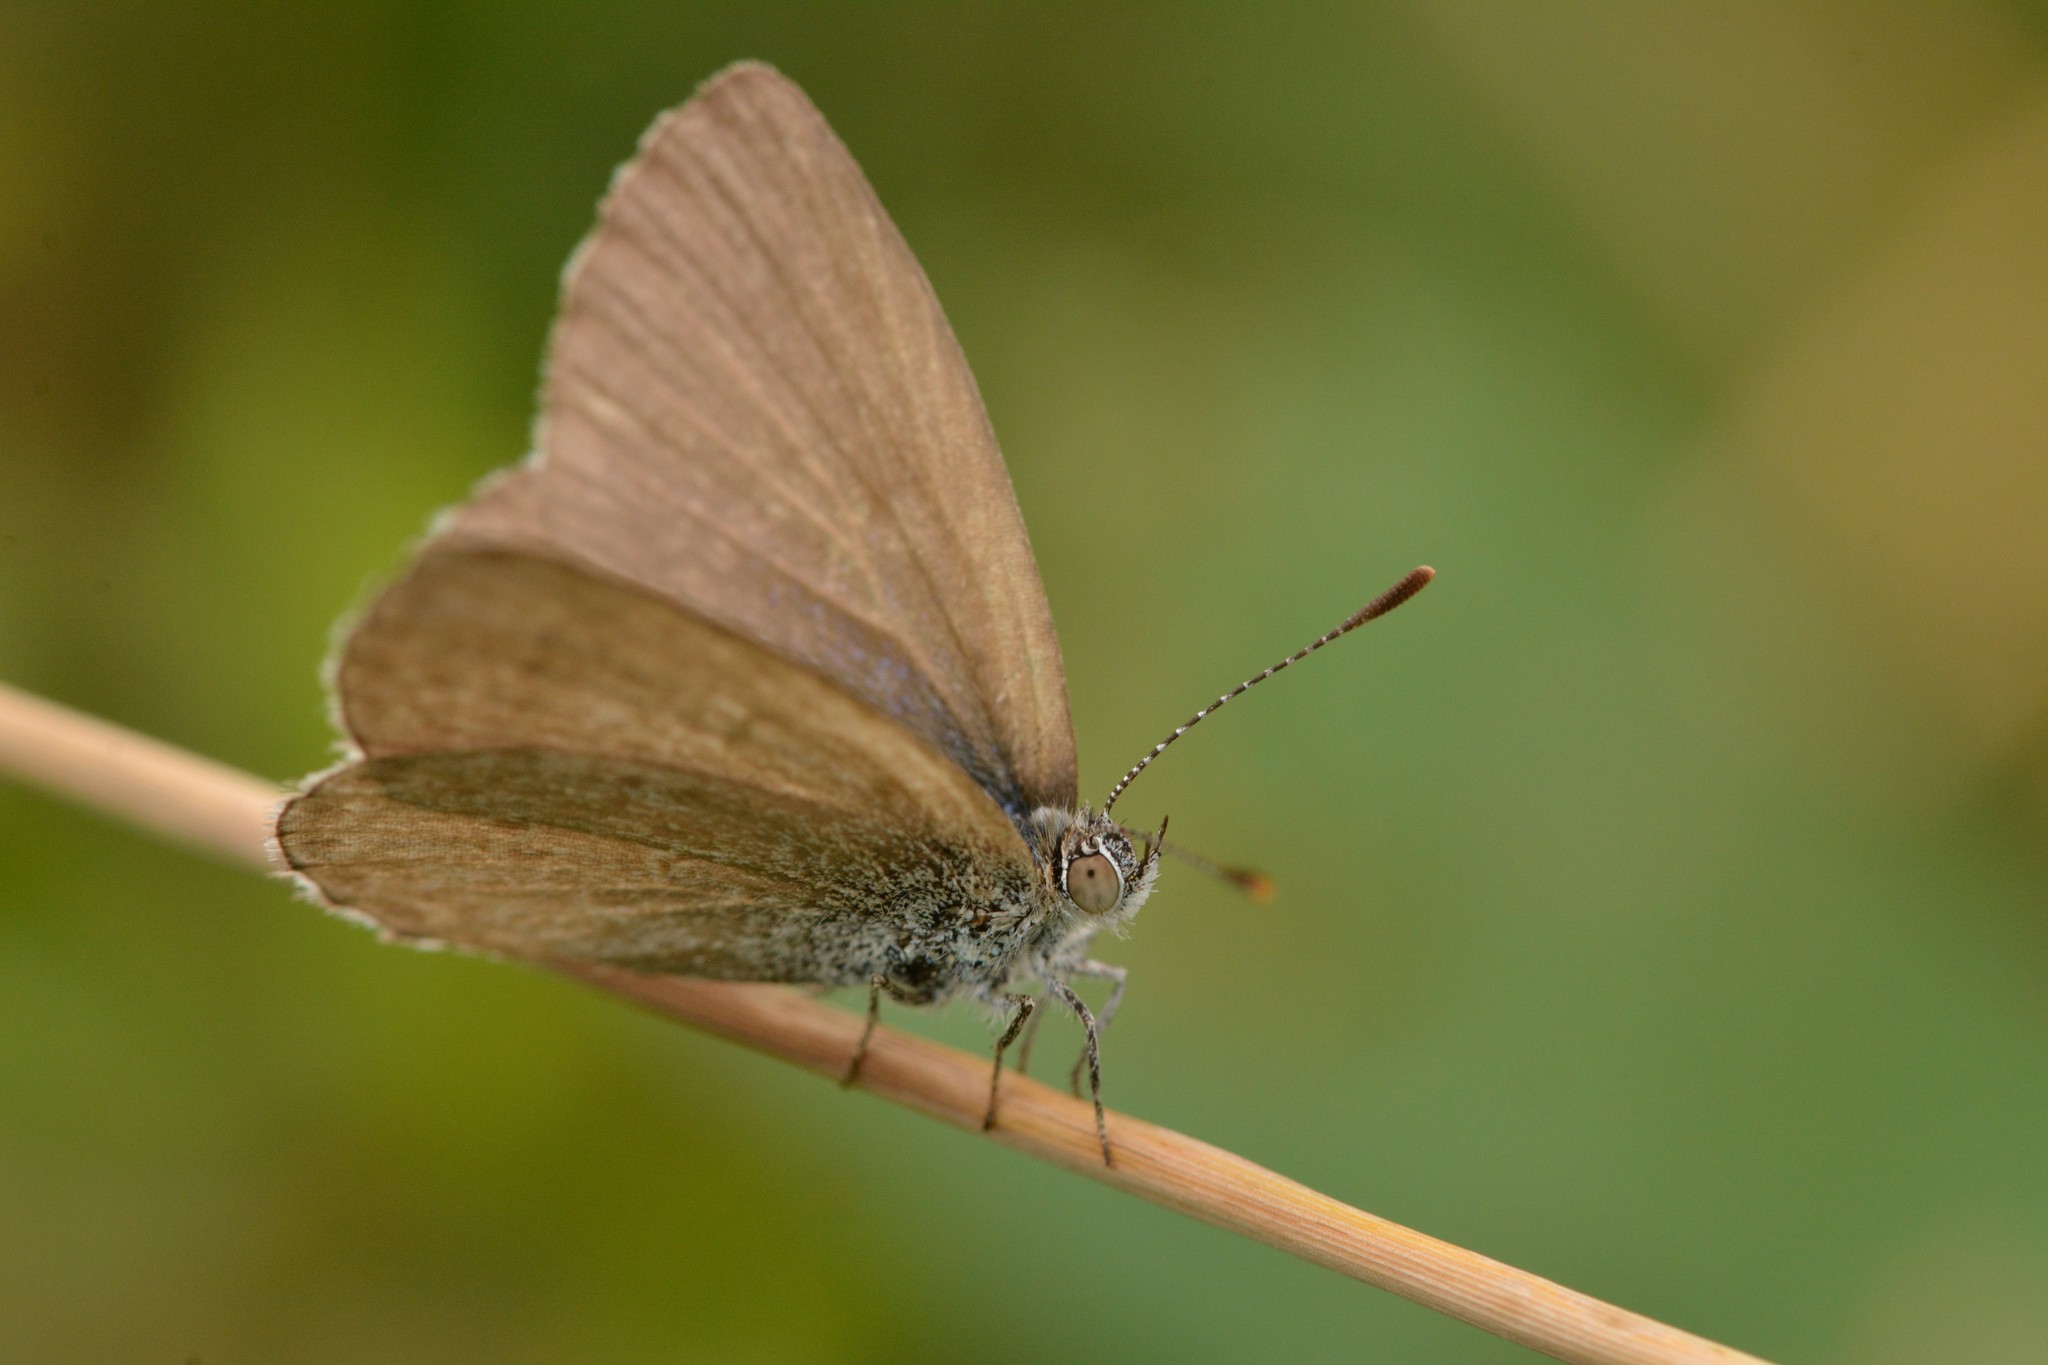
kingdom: Animalia
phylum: Arthropoda
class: Insecta
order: Lepidoptera
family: Lycaenidae
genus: Zizina
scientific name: Zizina labradus
